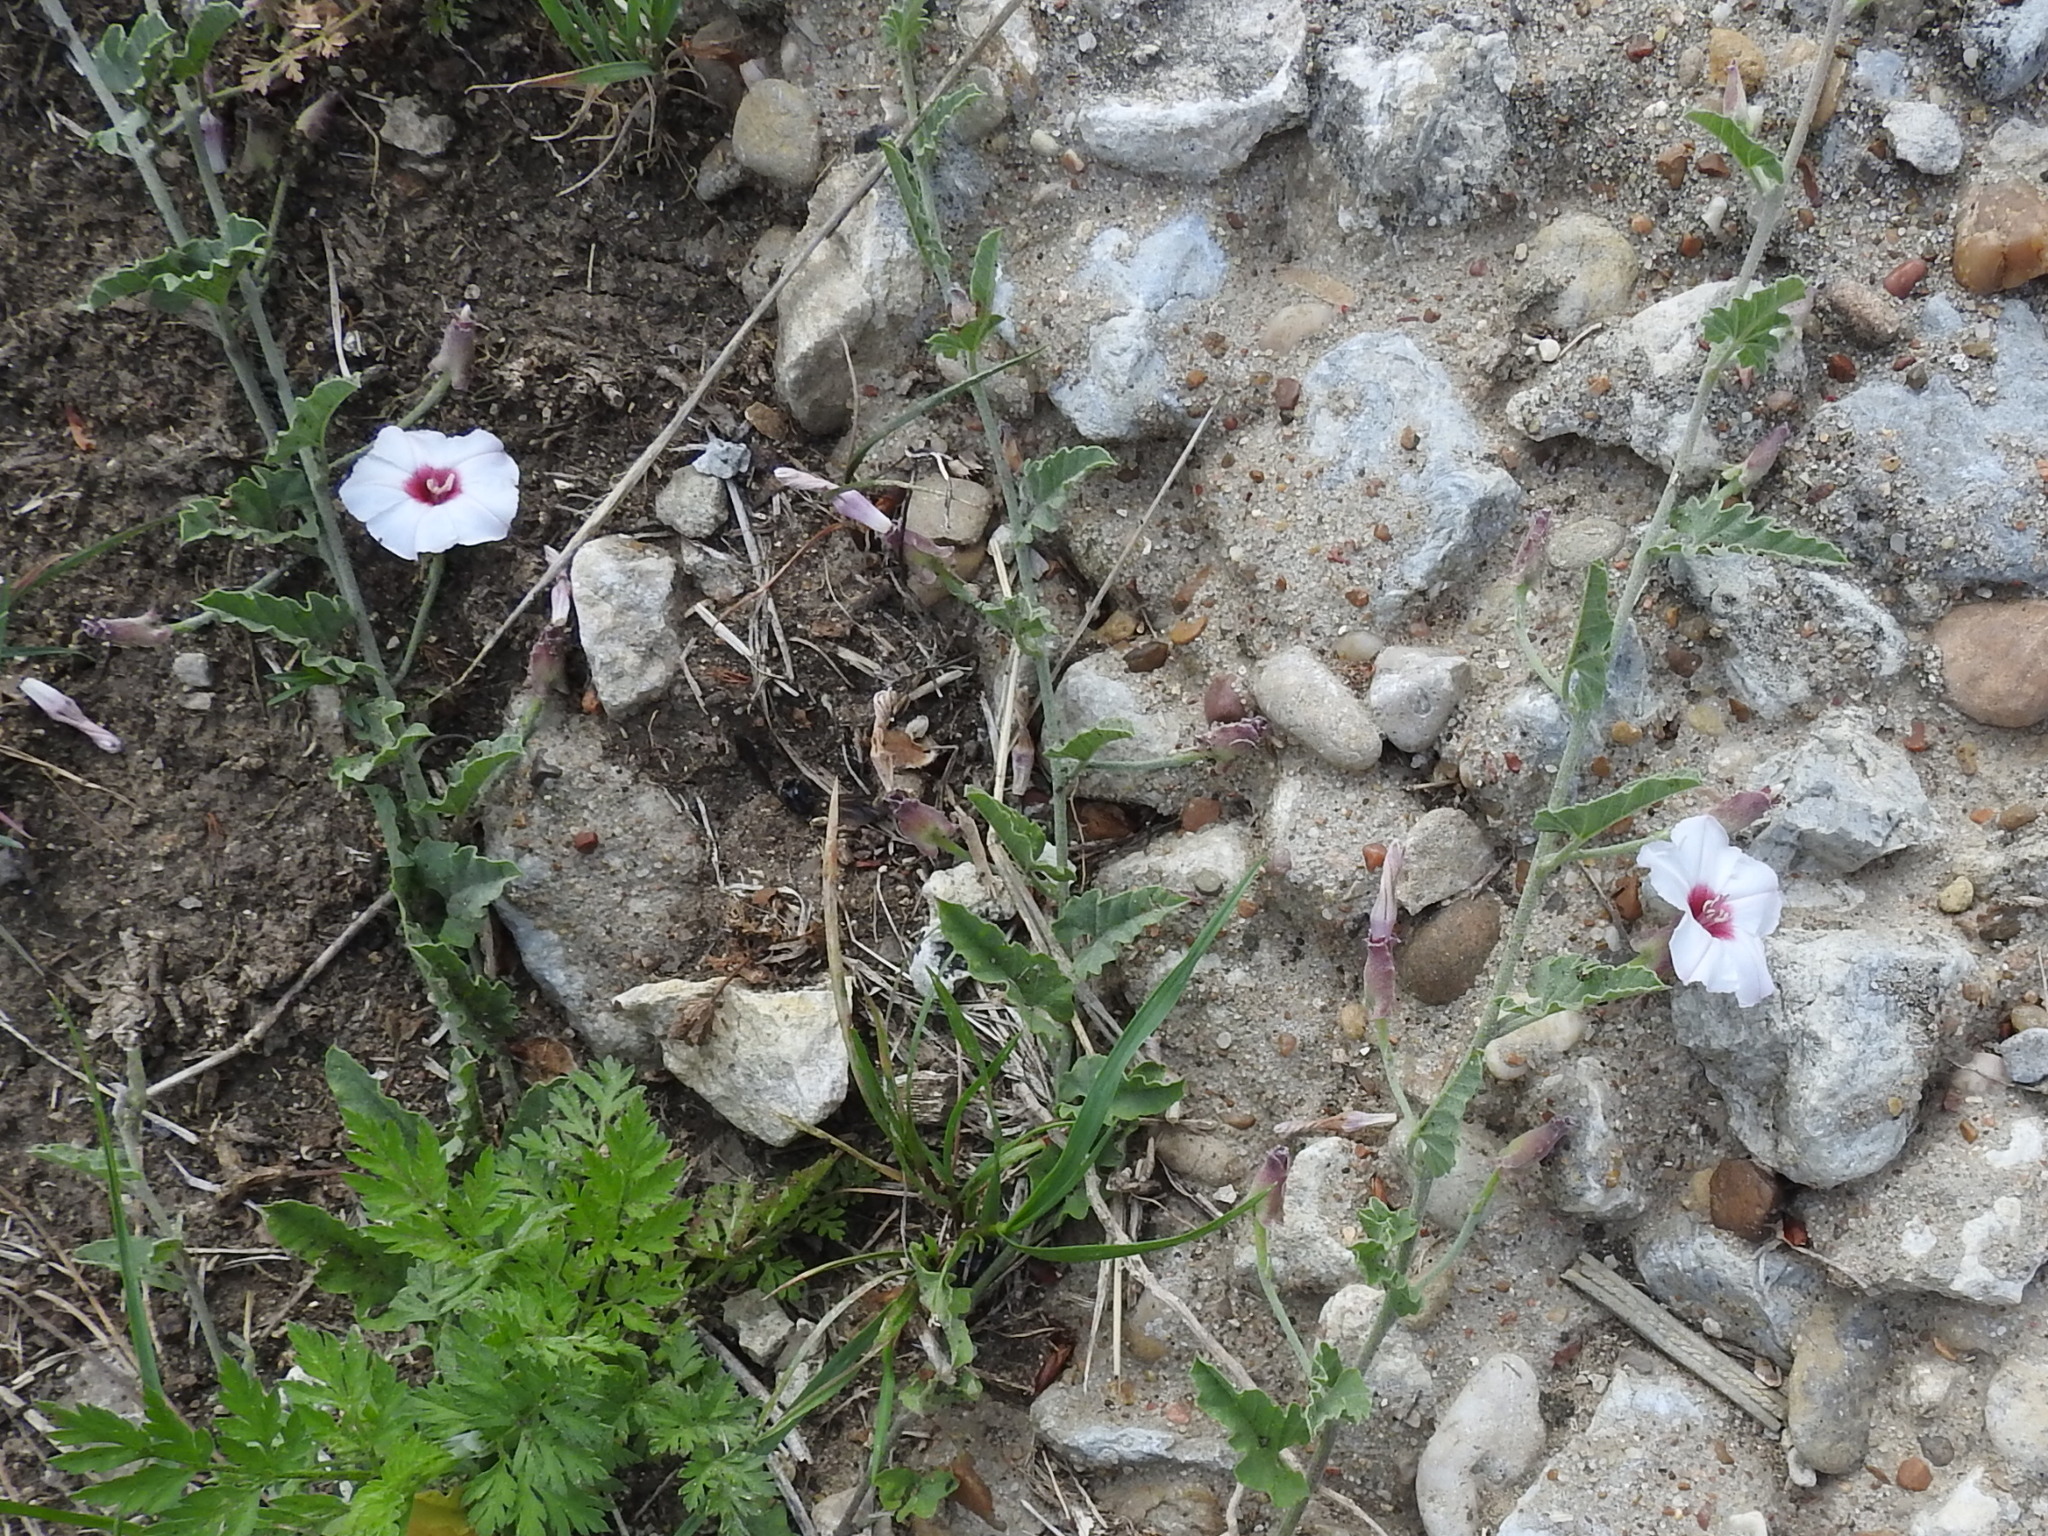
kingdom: Plantae
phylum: Tracheophyta
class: Magnoliopsida
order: Solanales
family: Convolvulaceae
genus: Convolvulus
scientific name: Convolvulus equitans
